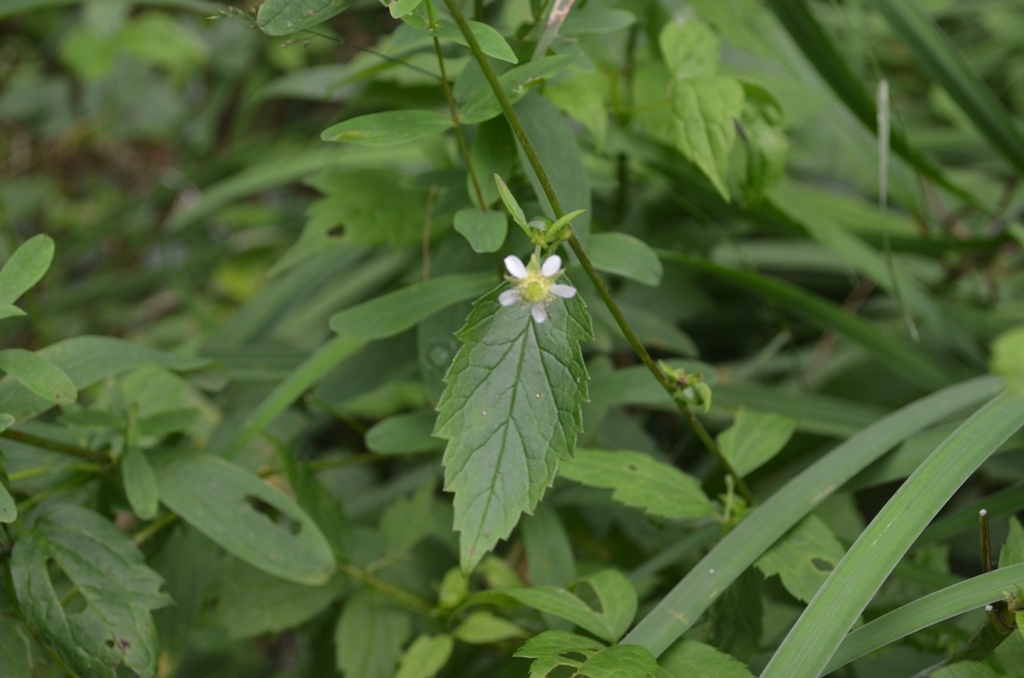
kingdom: Plantae
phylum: Tracheophyta
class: Magnoliopsida
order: Rosales
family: Rosaceae
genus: Geum
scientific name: Geum canadense
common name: White avens
